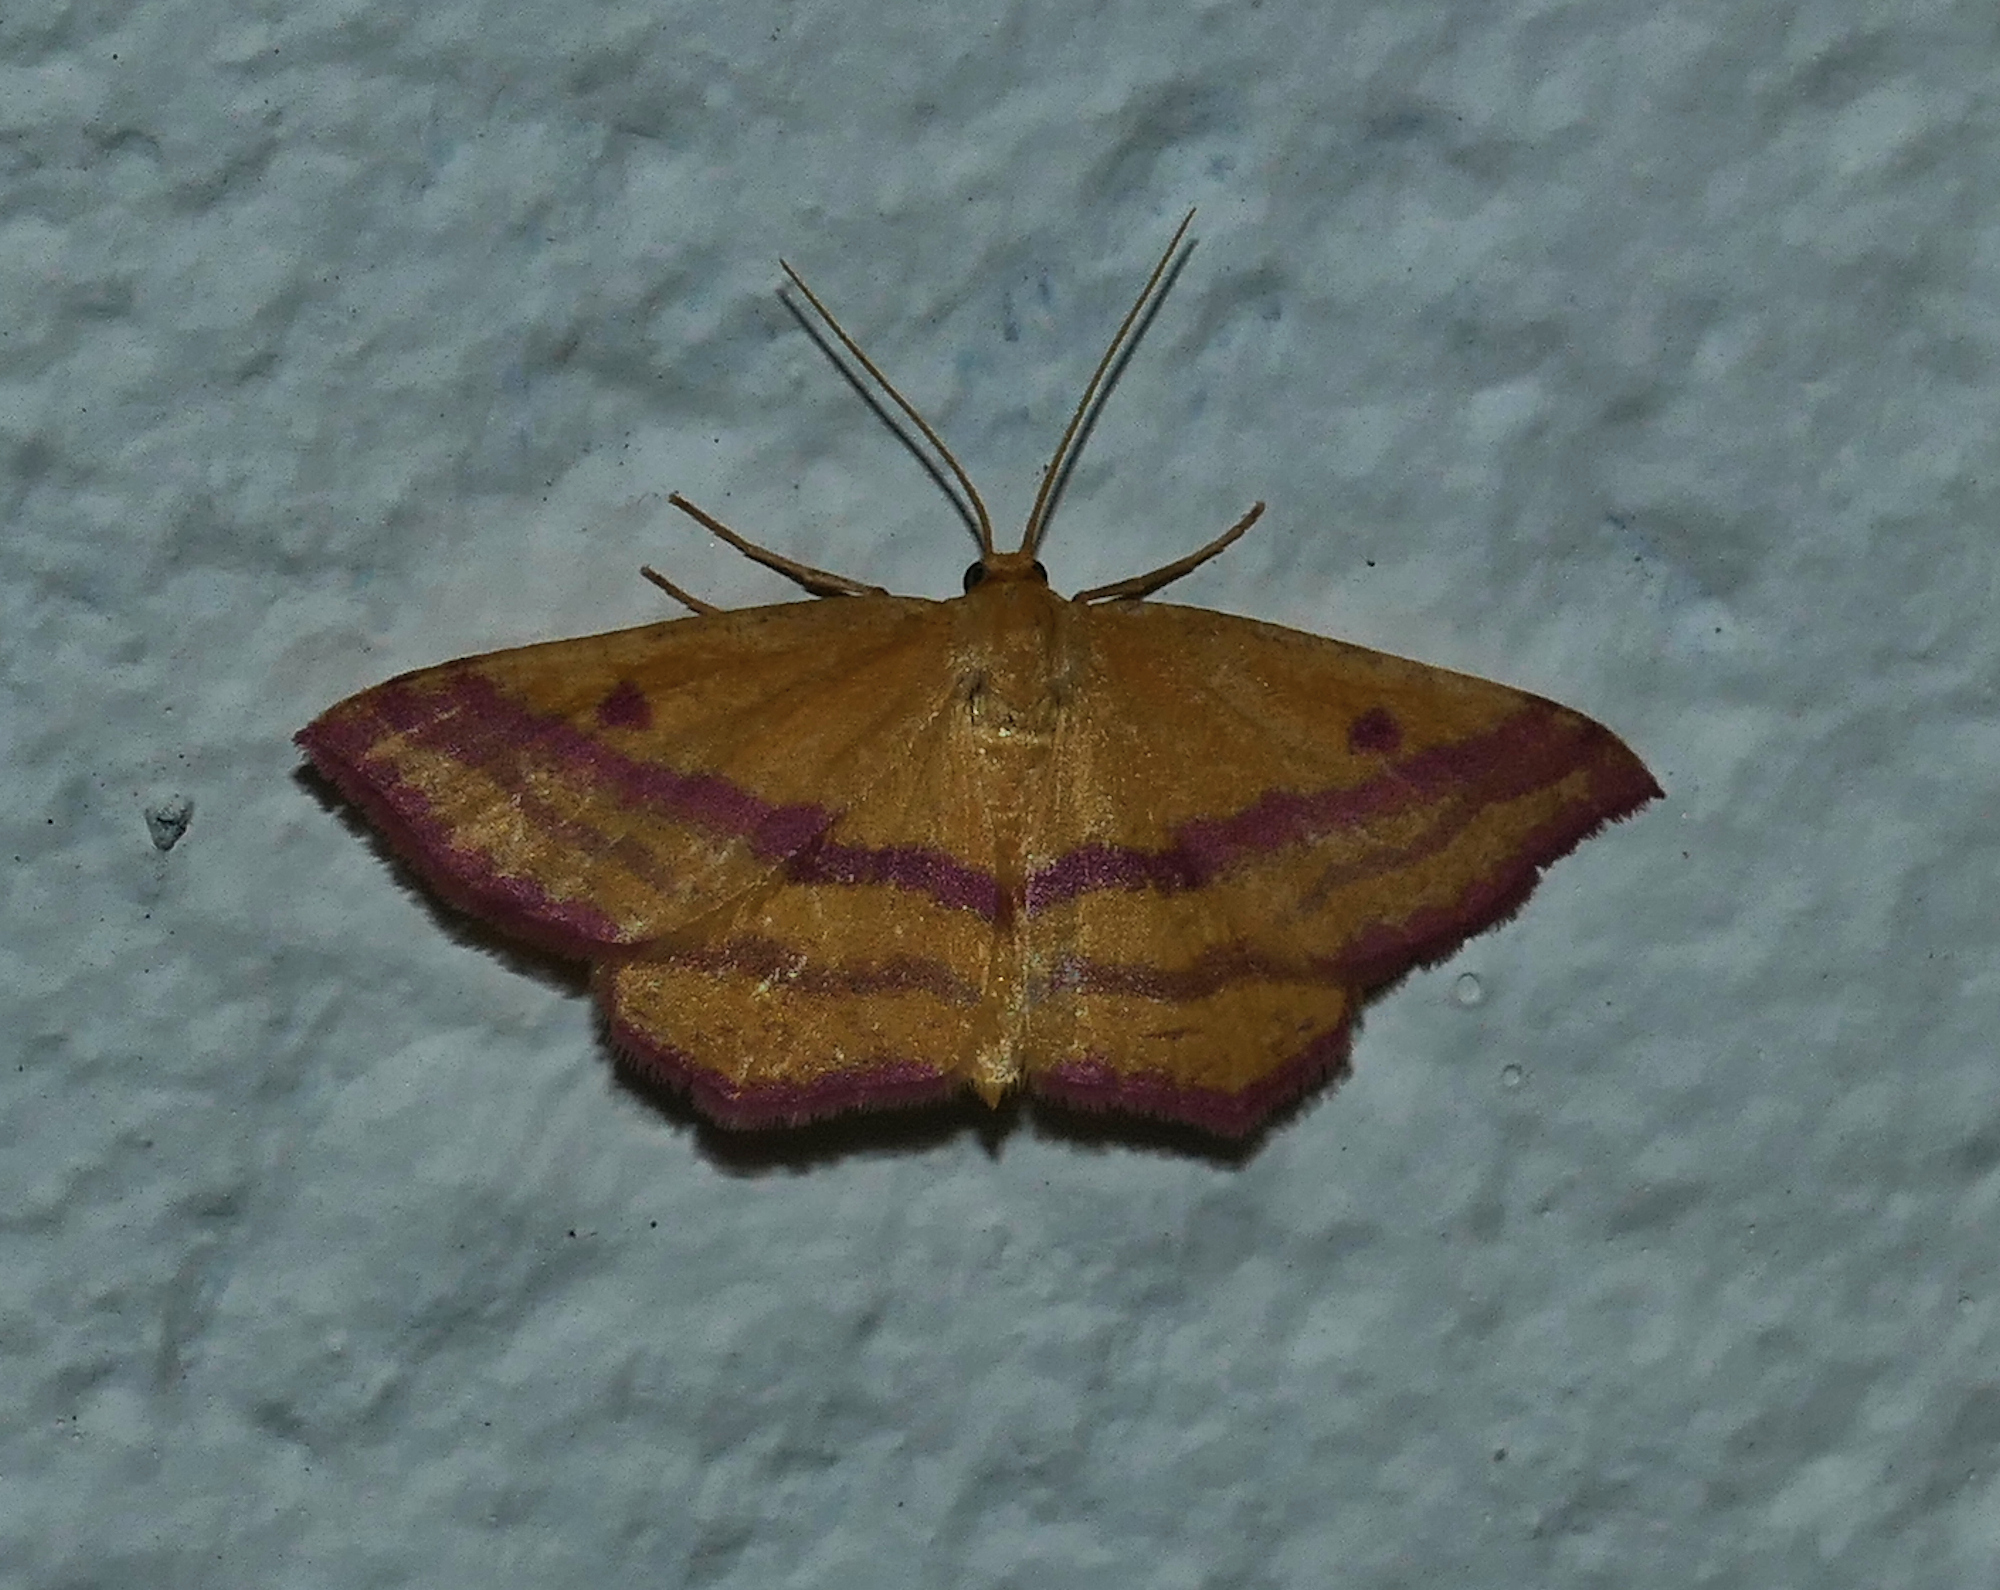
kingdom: Animalia
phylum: Arthropoda
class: Insecta
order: Lepidoptera
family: Geometridae
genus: Haematopis
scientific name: Haematopis grataria
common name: Chickweed geometer
